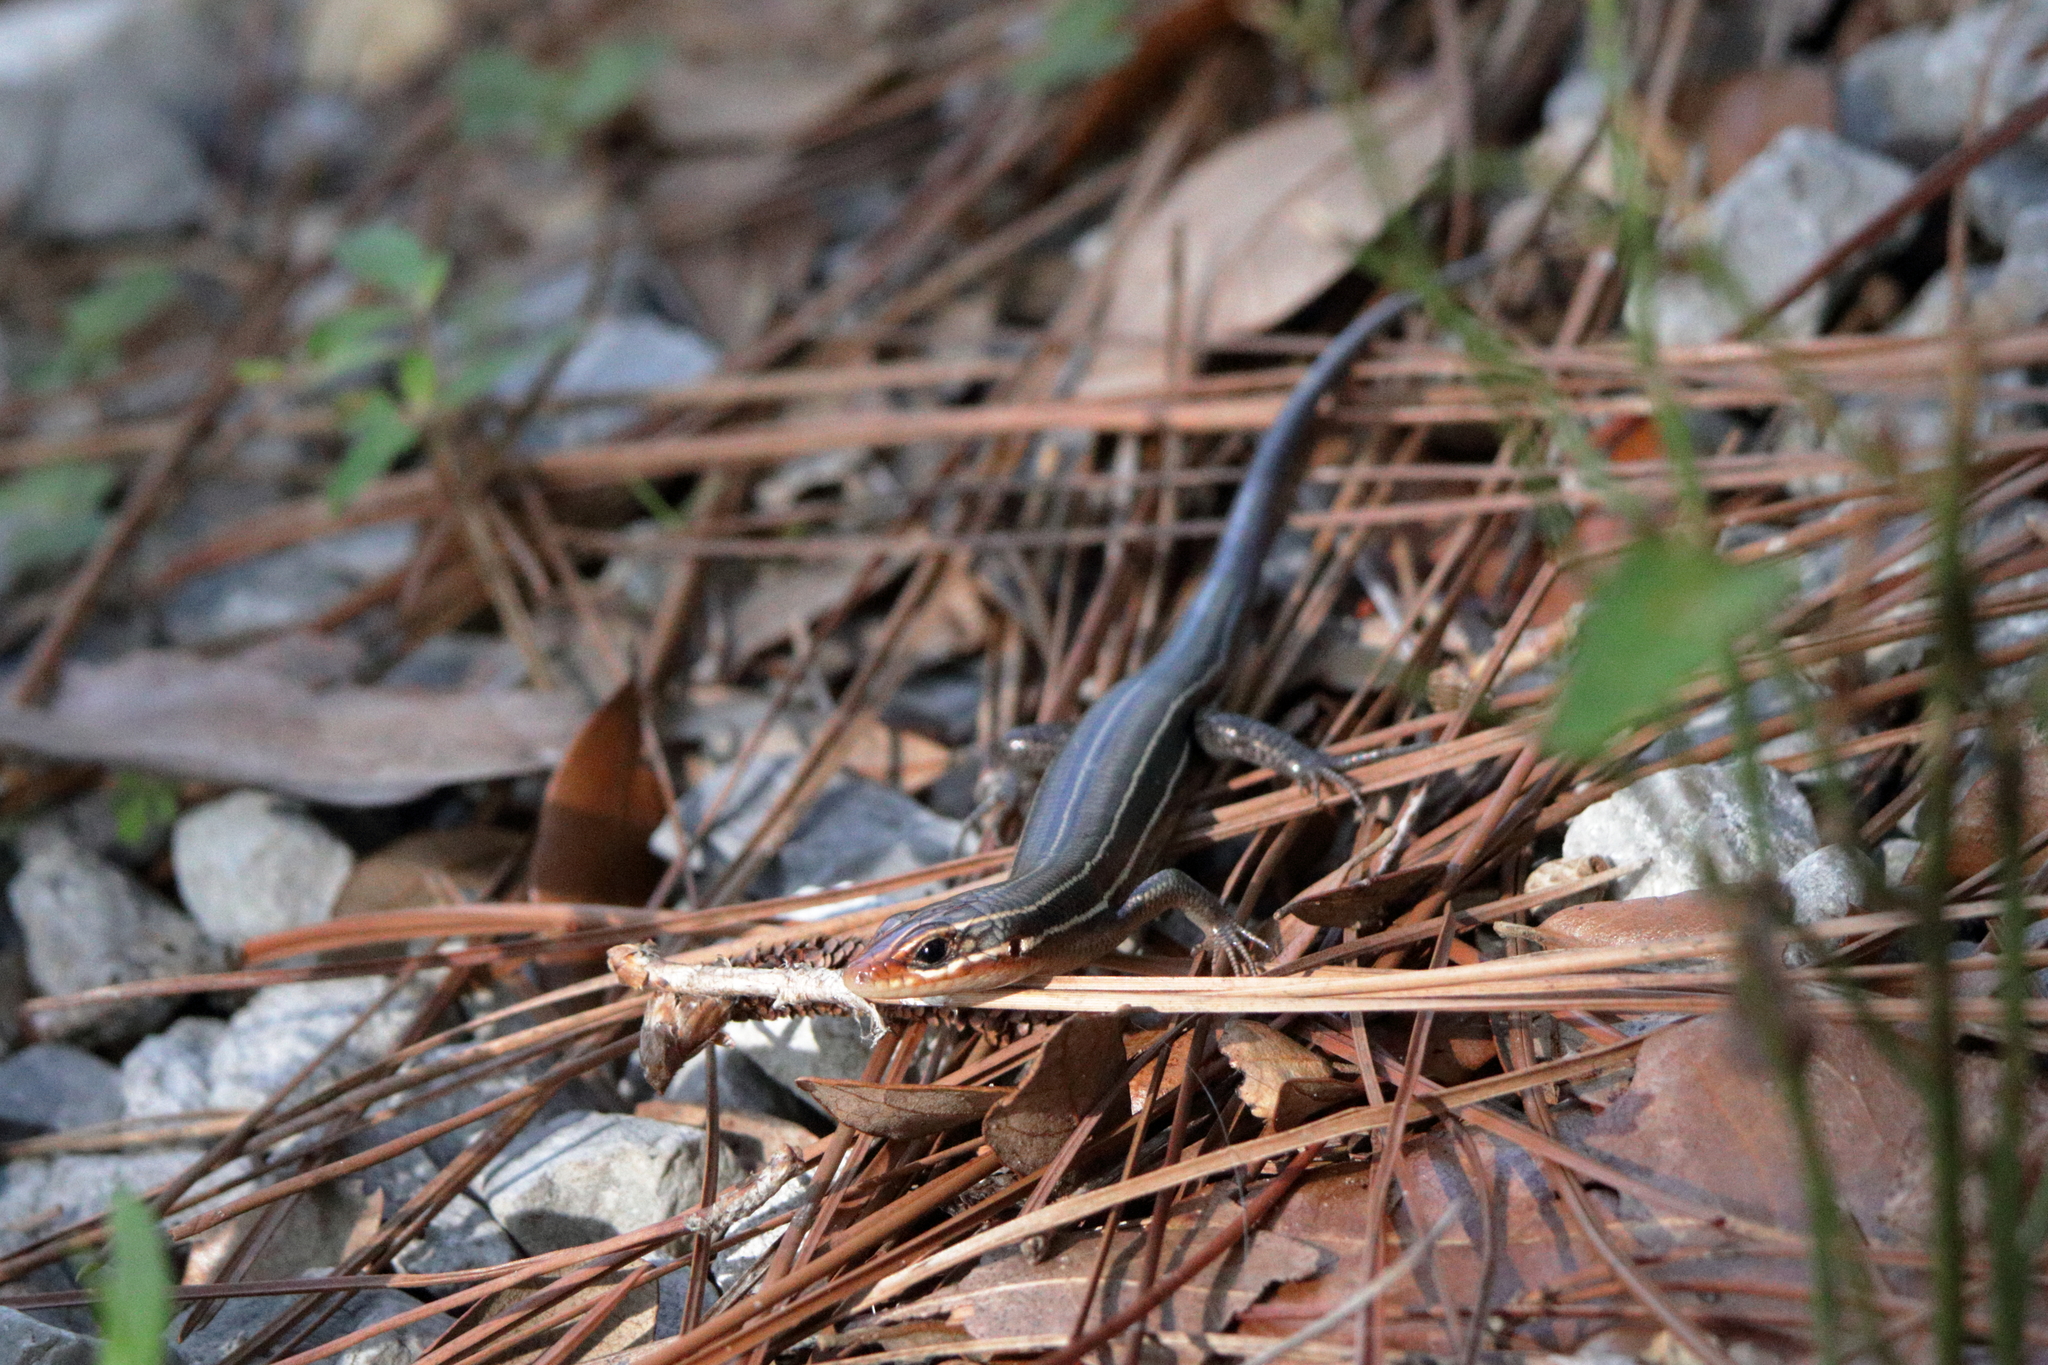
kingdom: Animalia
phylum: Chordata
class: Squamata
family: Scincidae
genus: Plestiodon
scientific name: Plestiodon inexpectatus
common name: Southeastern five-lined skink
